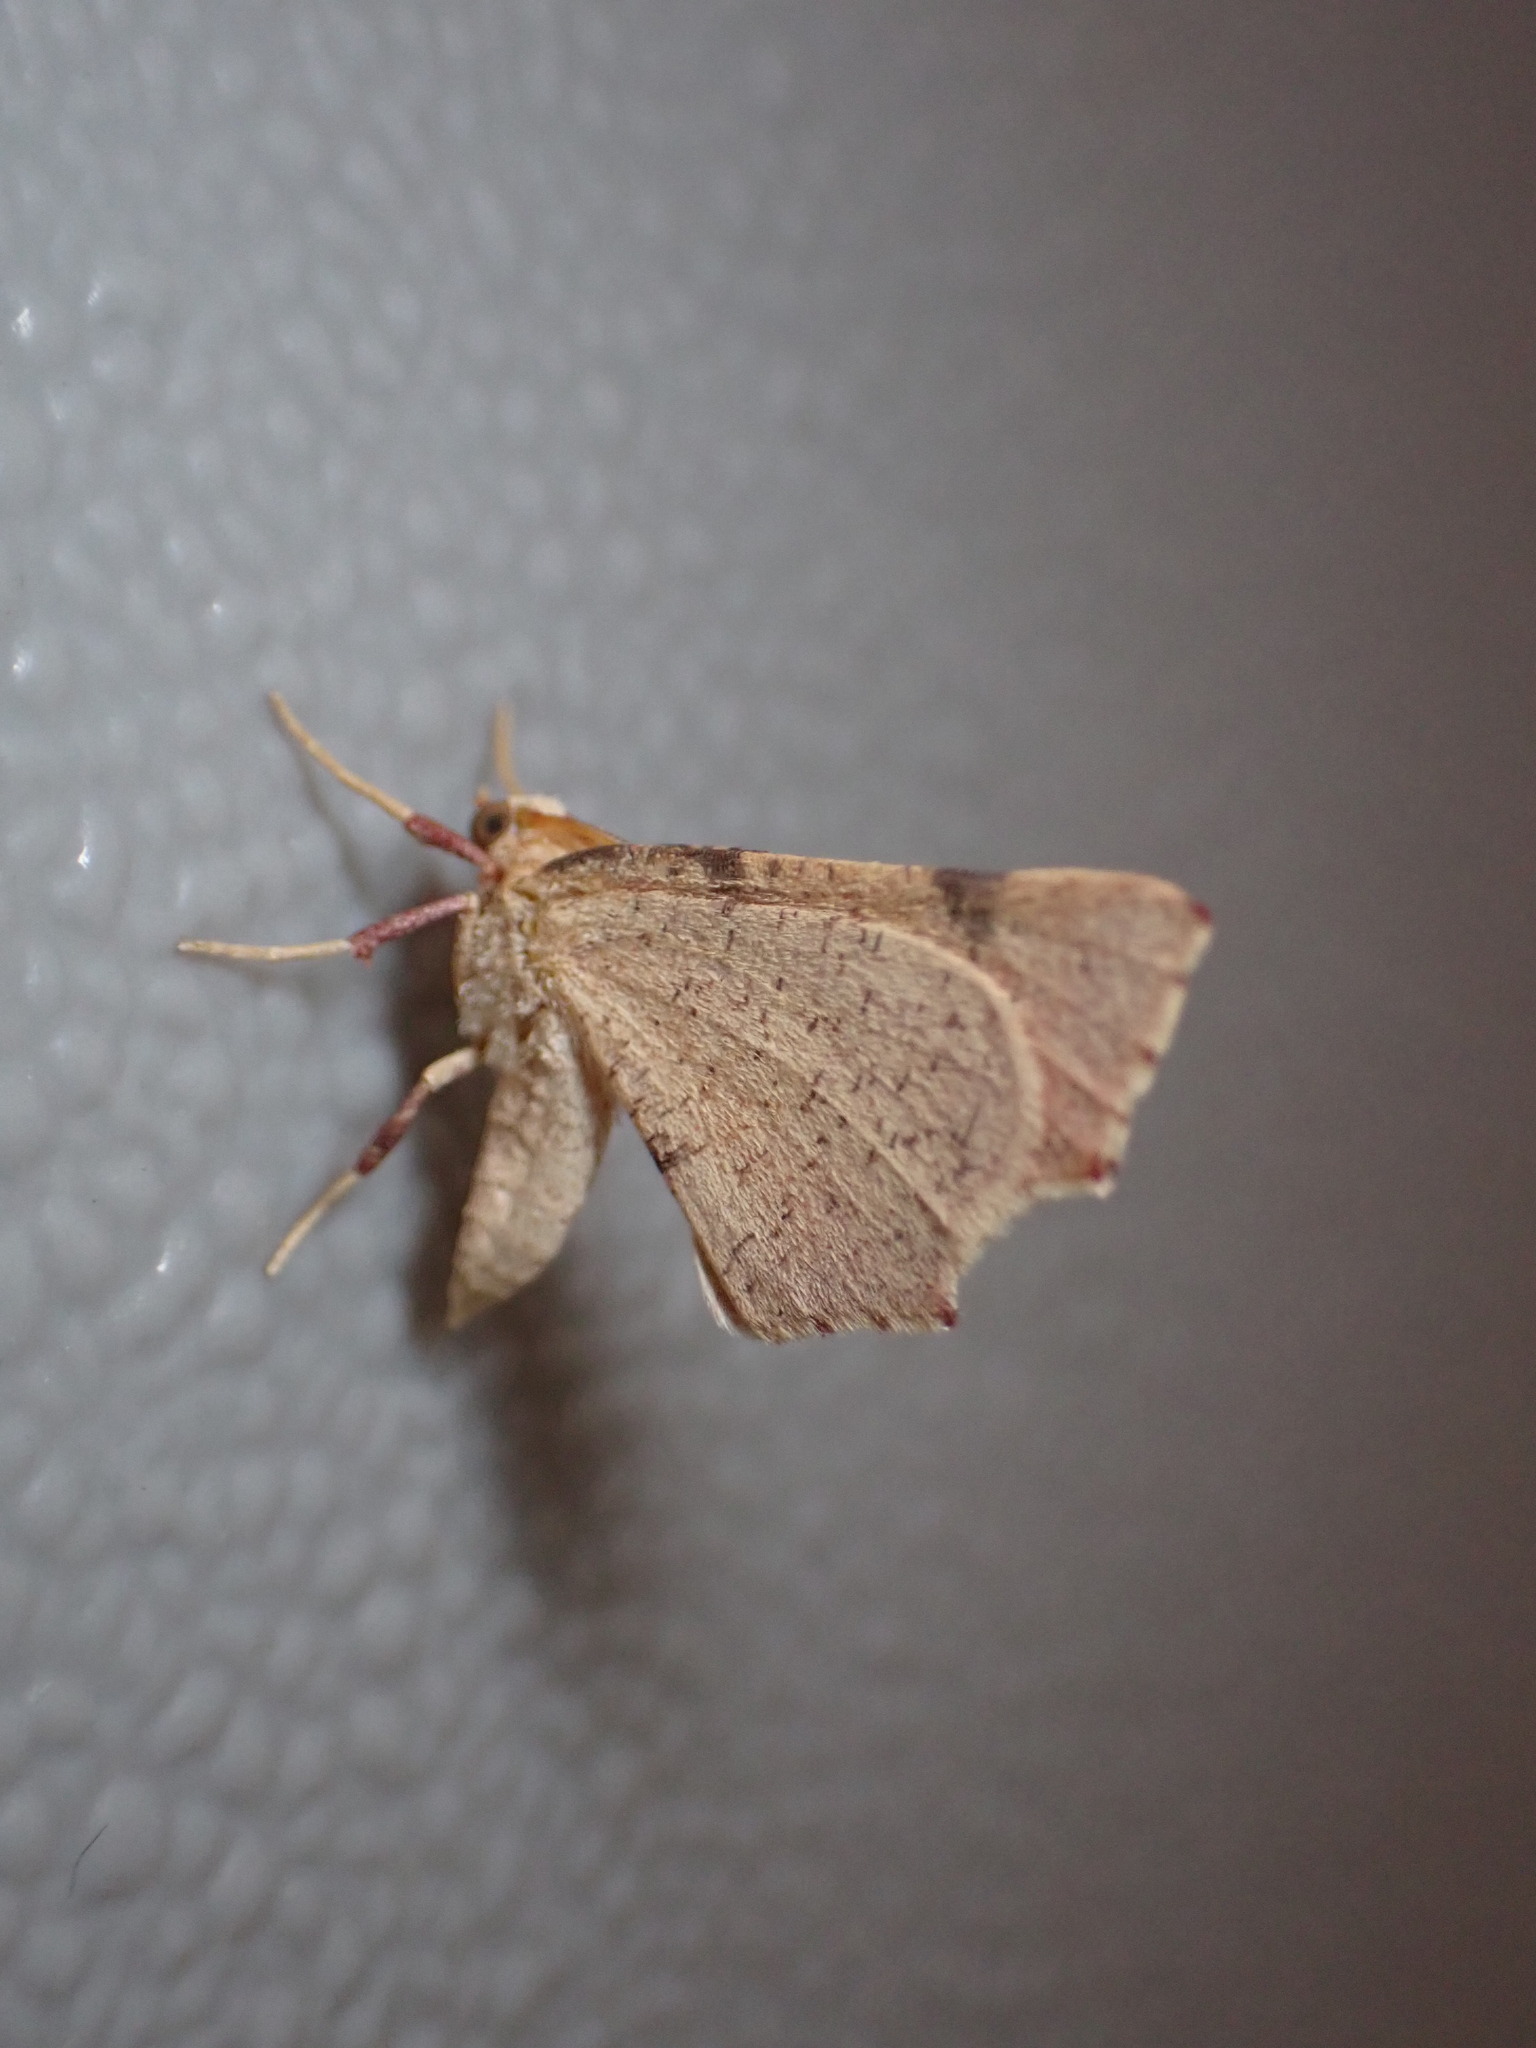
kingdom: Animalia
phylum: Arthropoda
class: Insecta
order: Lepidoptera
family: Geometridae
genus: Slossonia
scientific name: Slossonia rubrotincta
